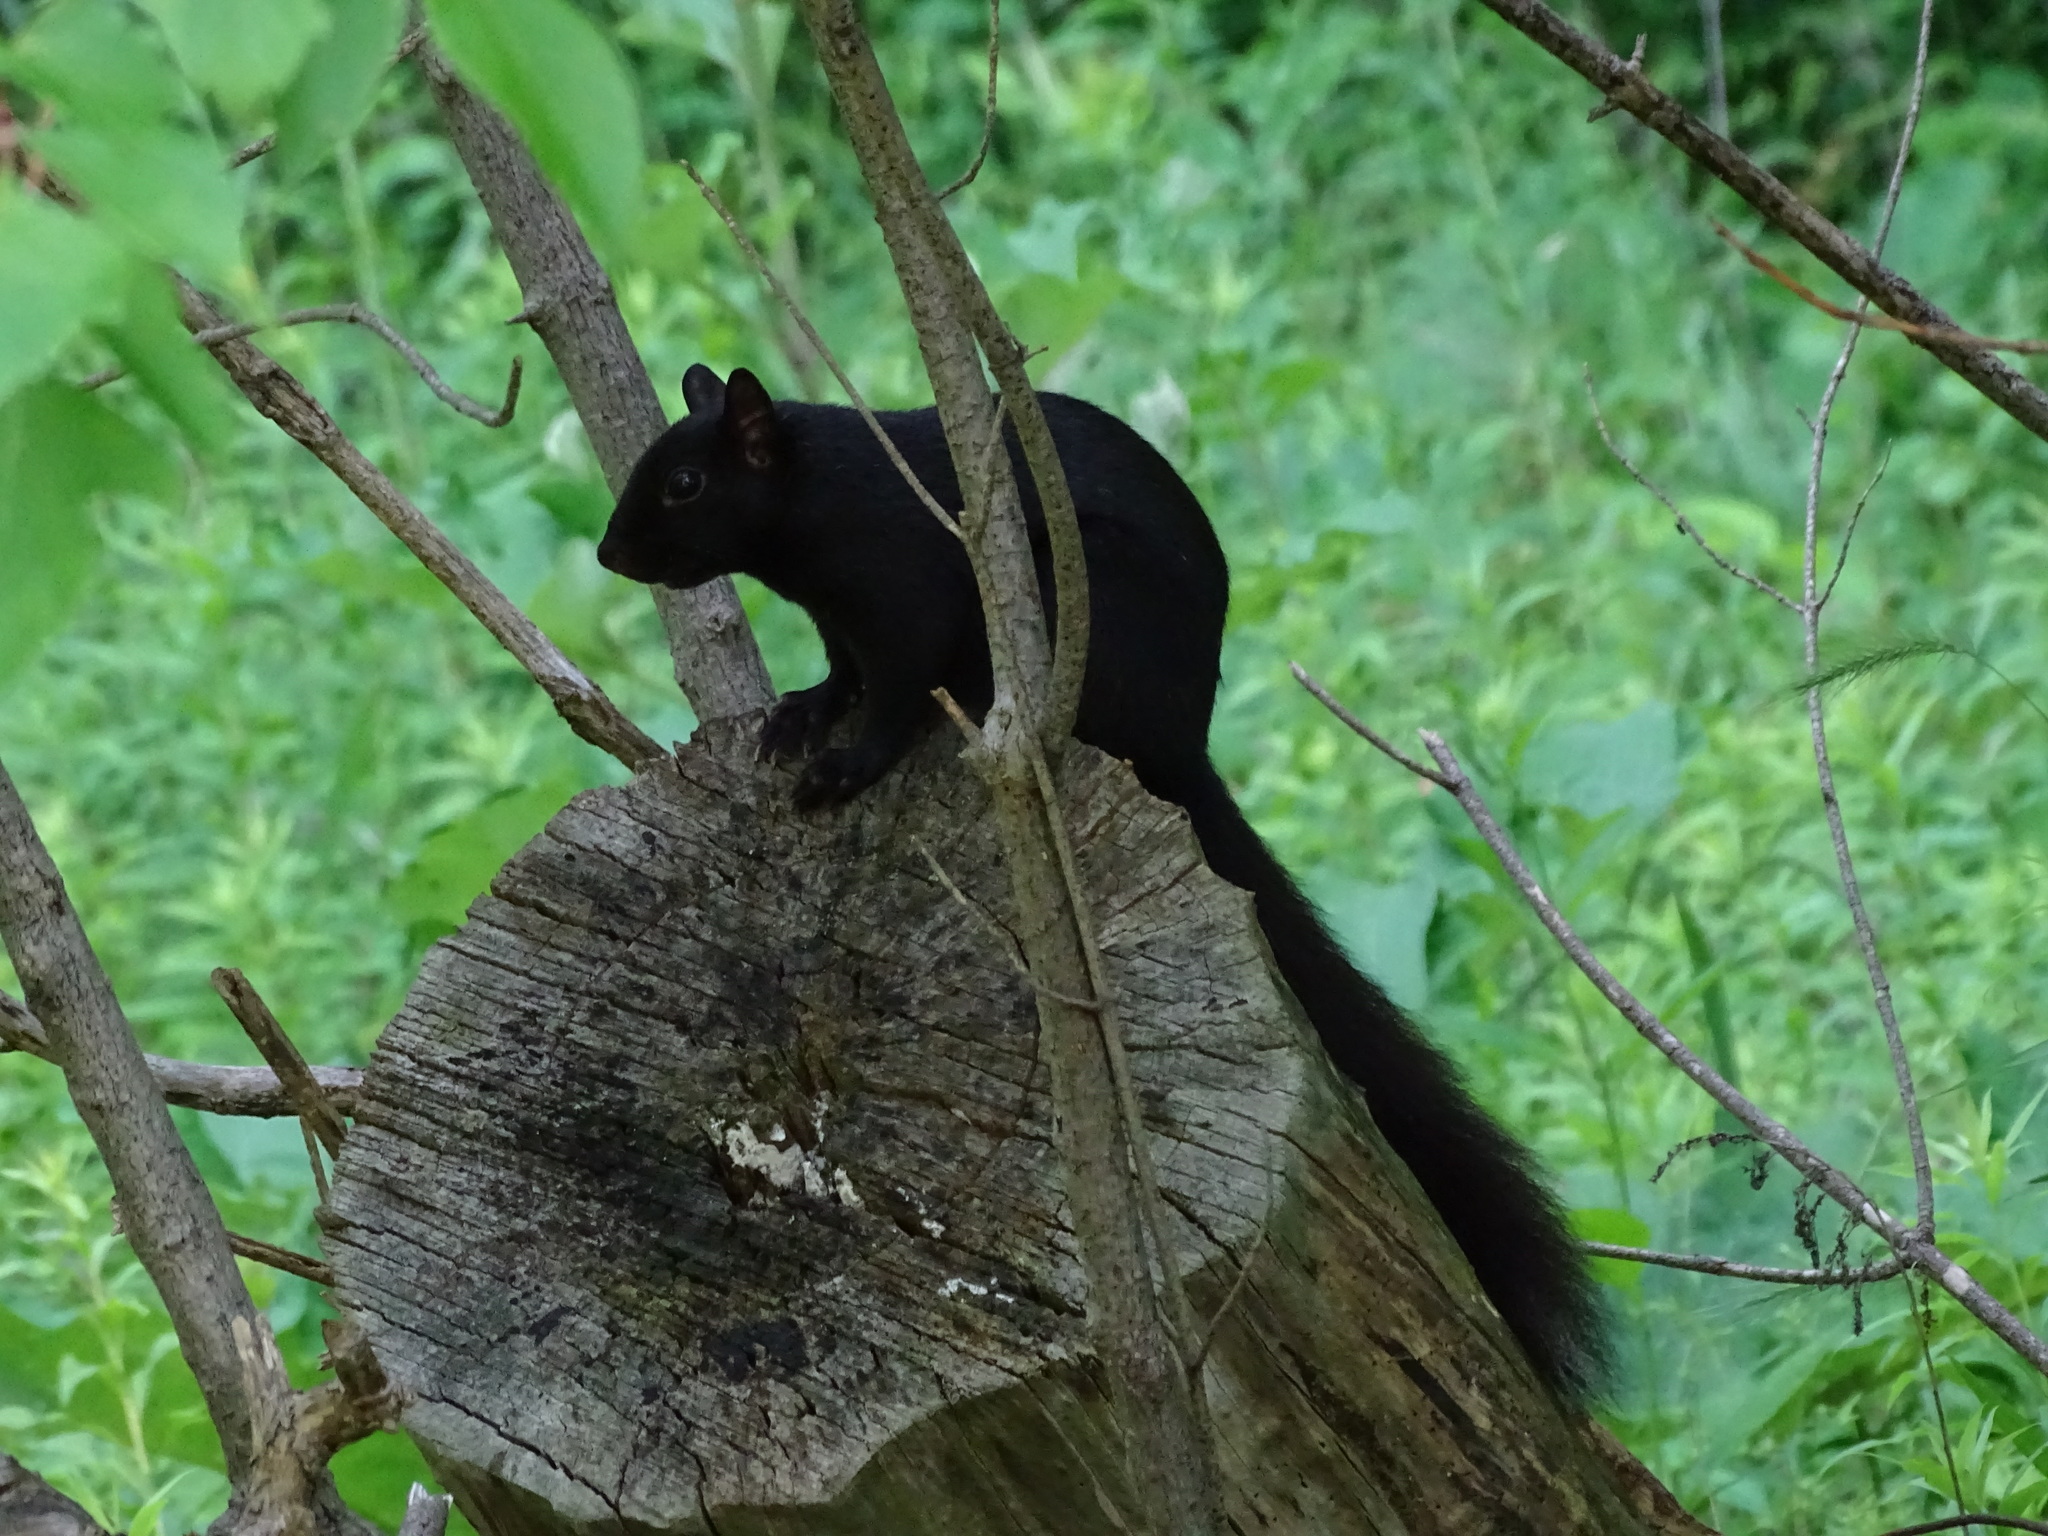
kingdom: Animalia
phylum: Chordata
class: Mammalia
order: Rodentia
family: Sciuridae
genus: Sciurus
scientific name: Sciurus carolinensis
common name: Eastern gray squirrel
